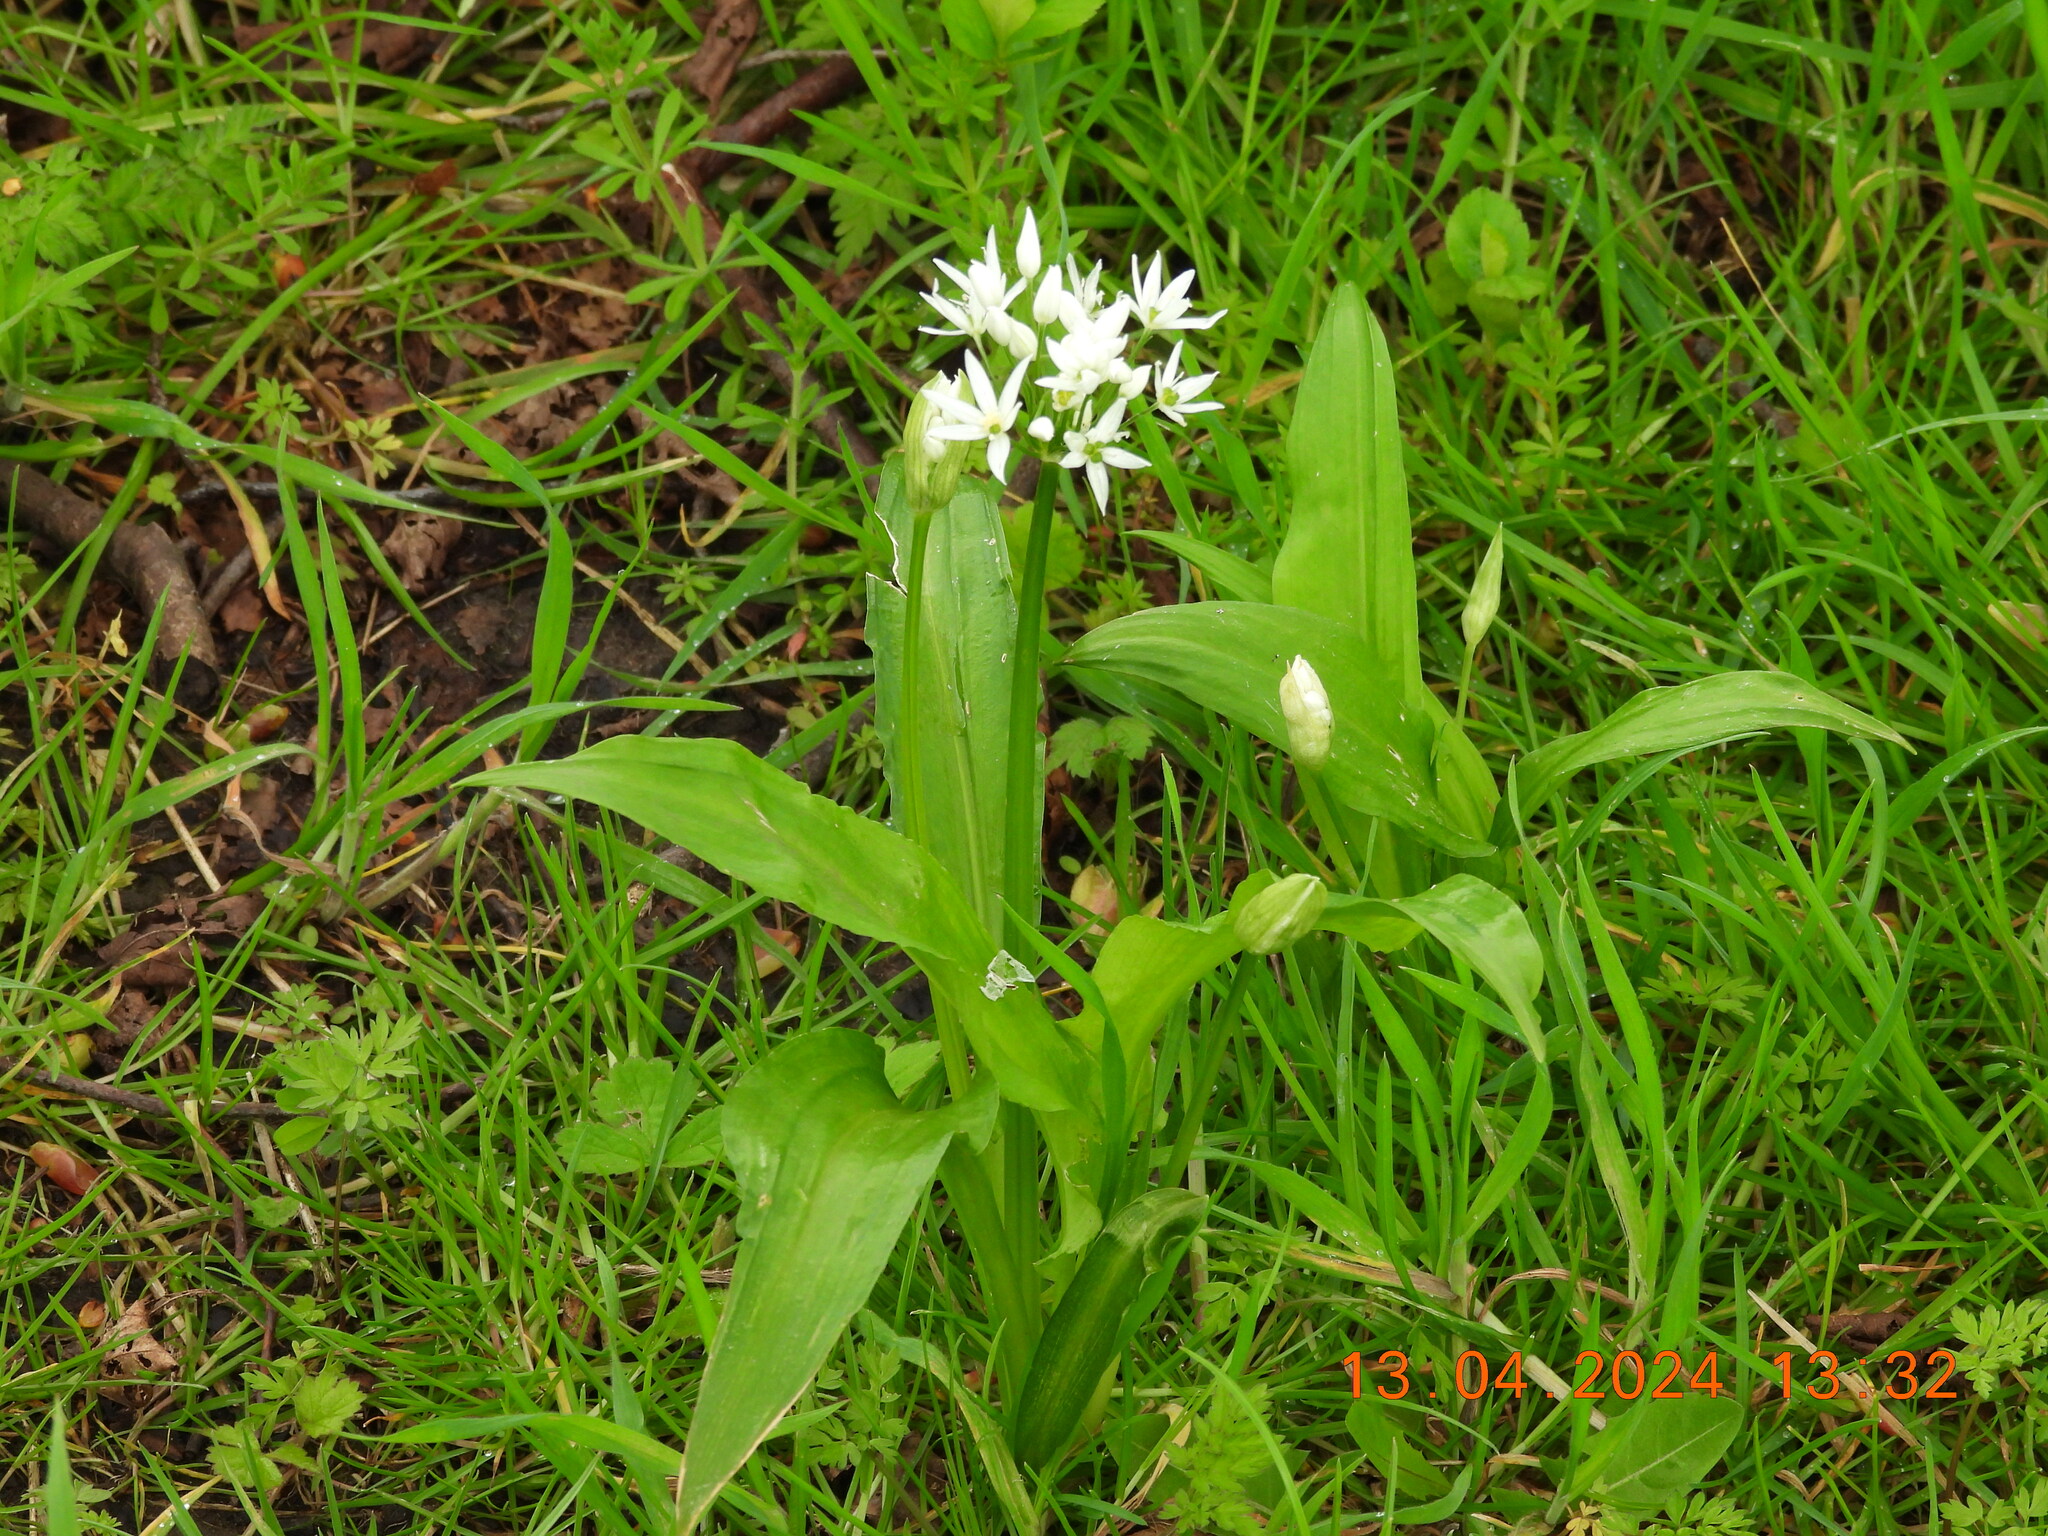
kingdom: Plantae
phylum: Tracheophyta
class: Liliopsida
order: Asparagales
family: Amaryllidaceae
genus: Allium
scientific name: Allium ursinum
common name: Ramsons
